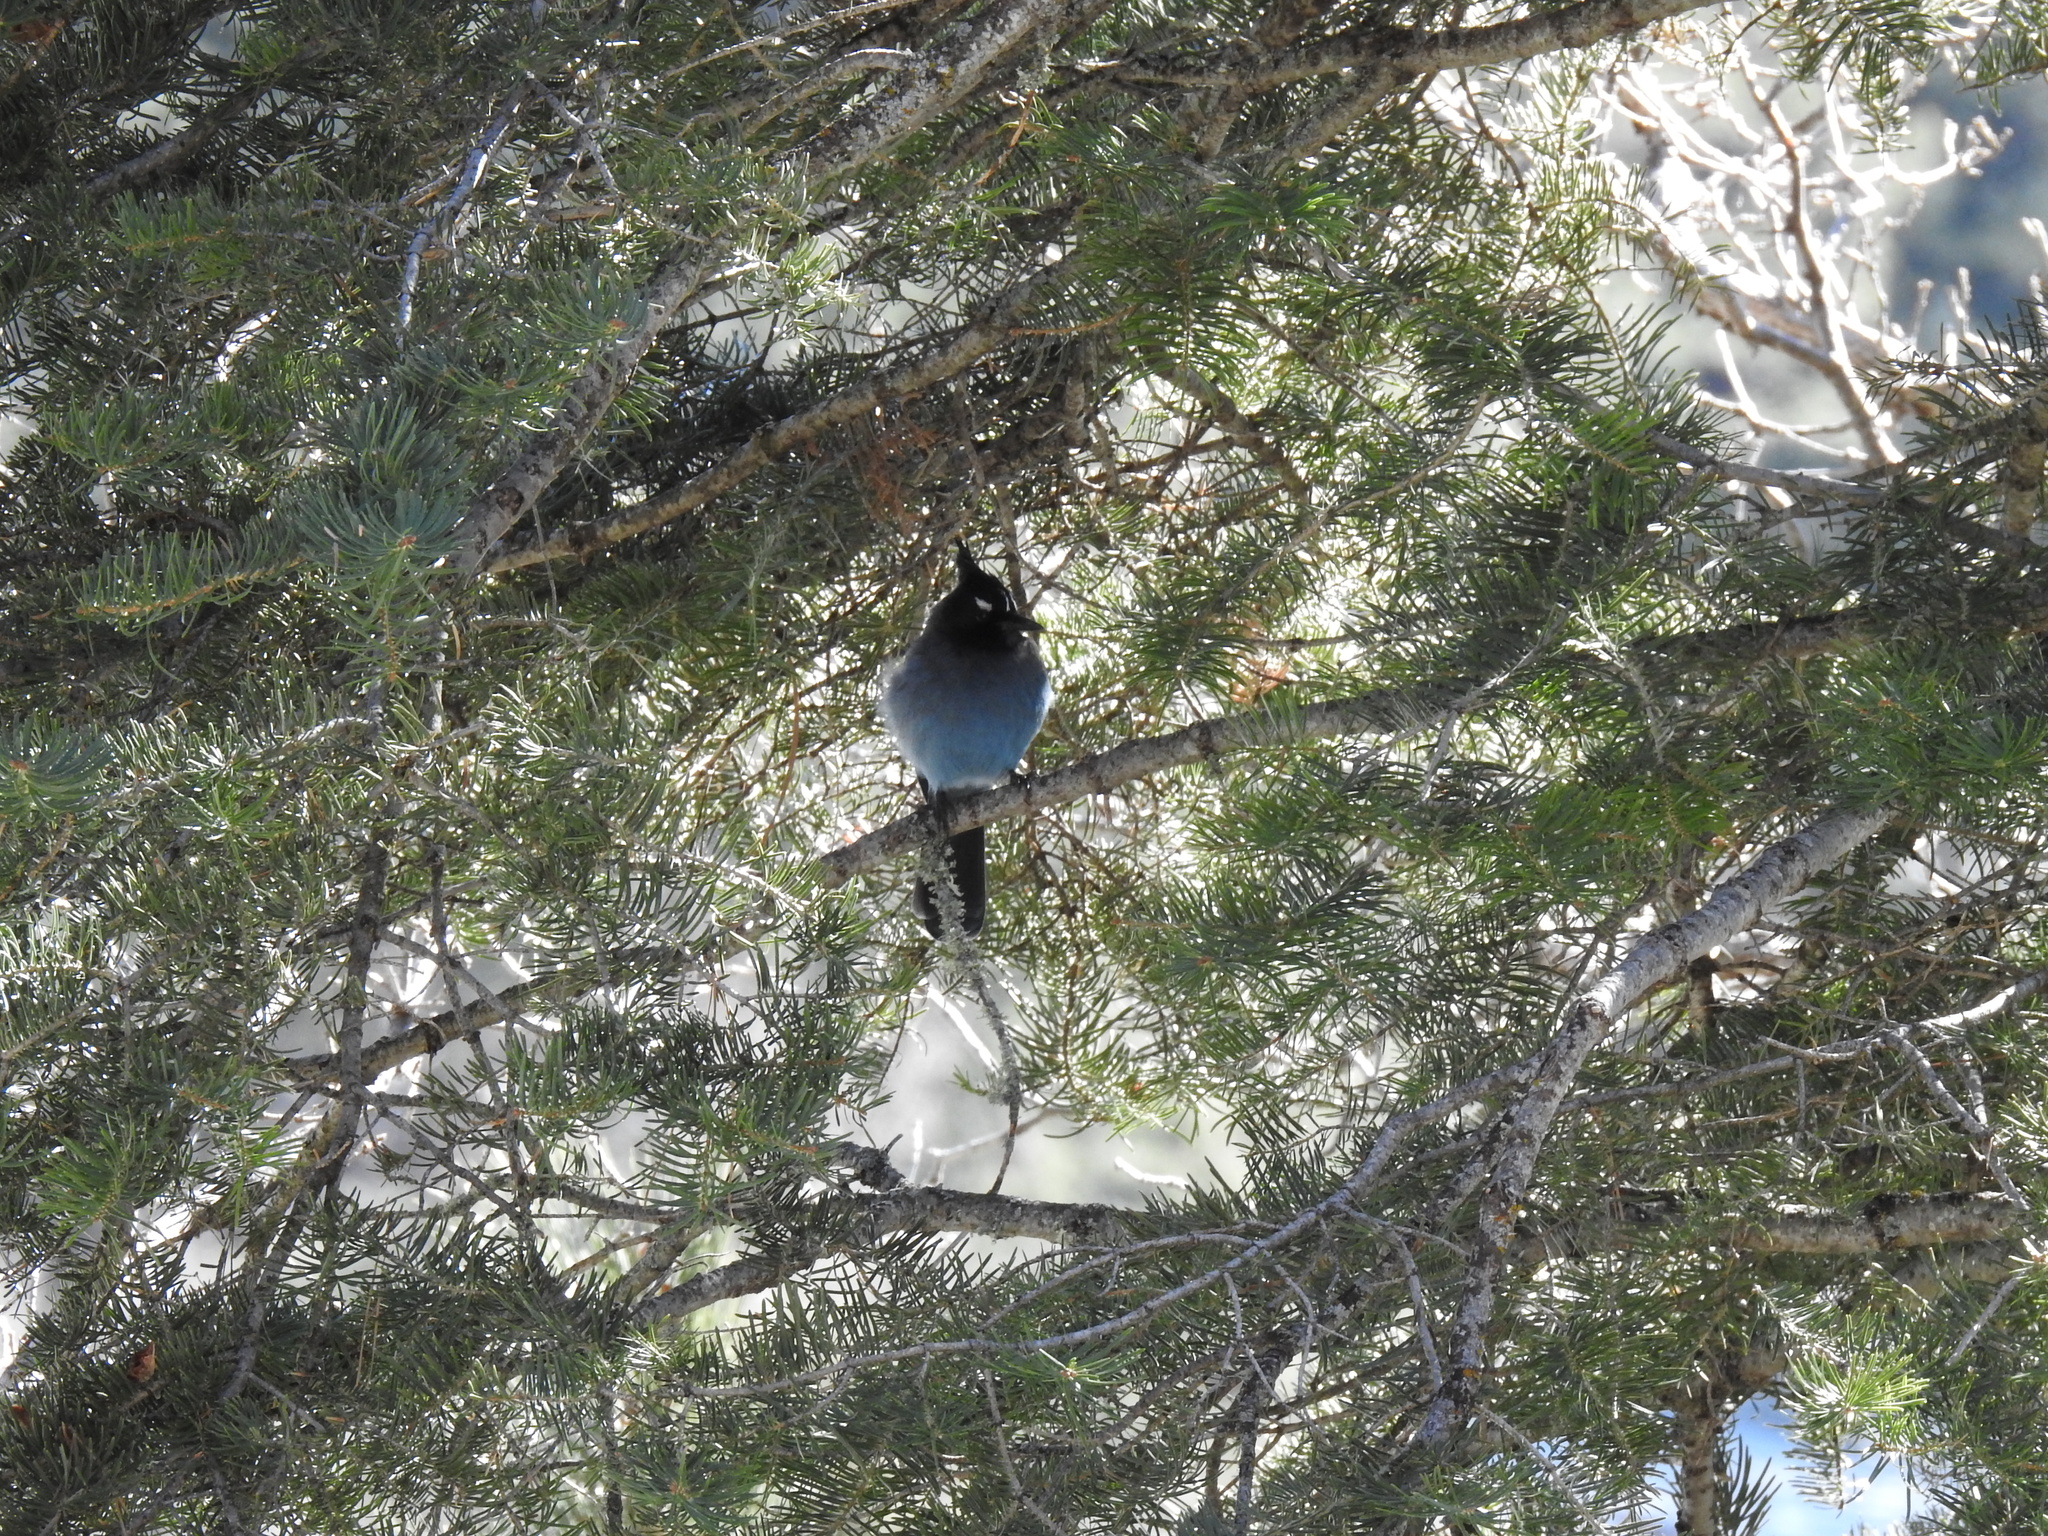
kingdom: Animalia
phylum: Chordata
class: Aves
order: Passeriformes
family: Corvidae
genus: Cyanocitta
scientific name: Cyanocitta stelleri
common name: Steller's jay
